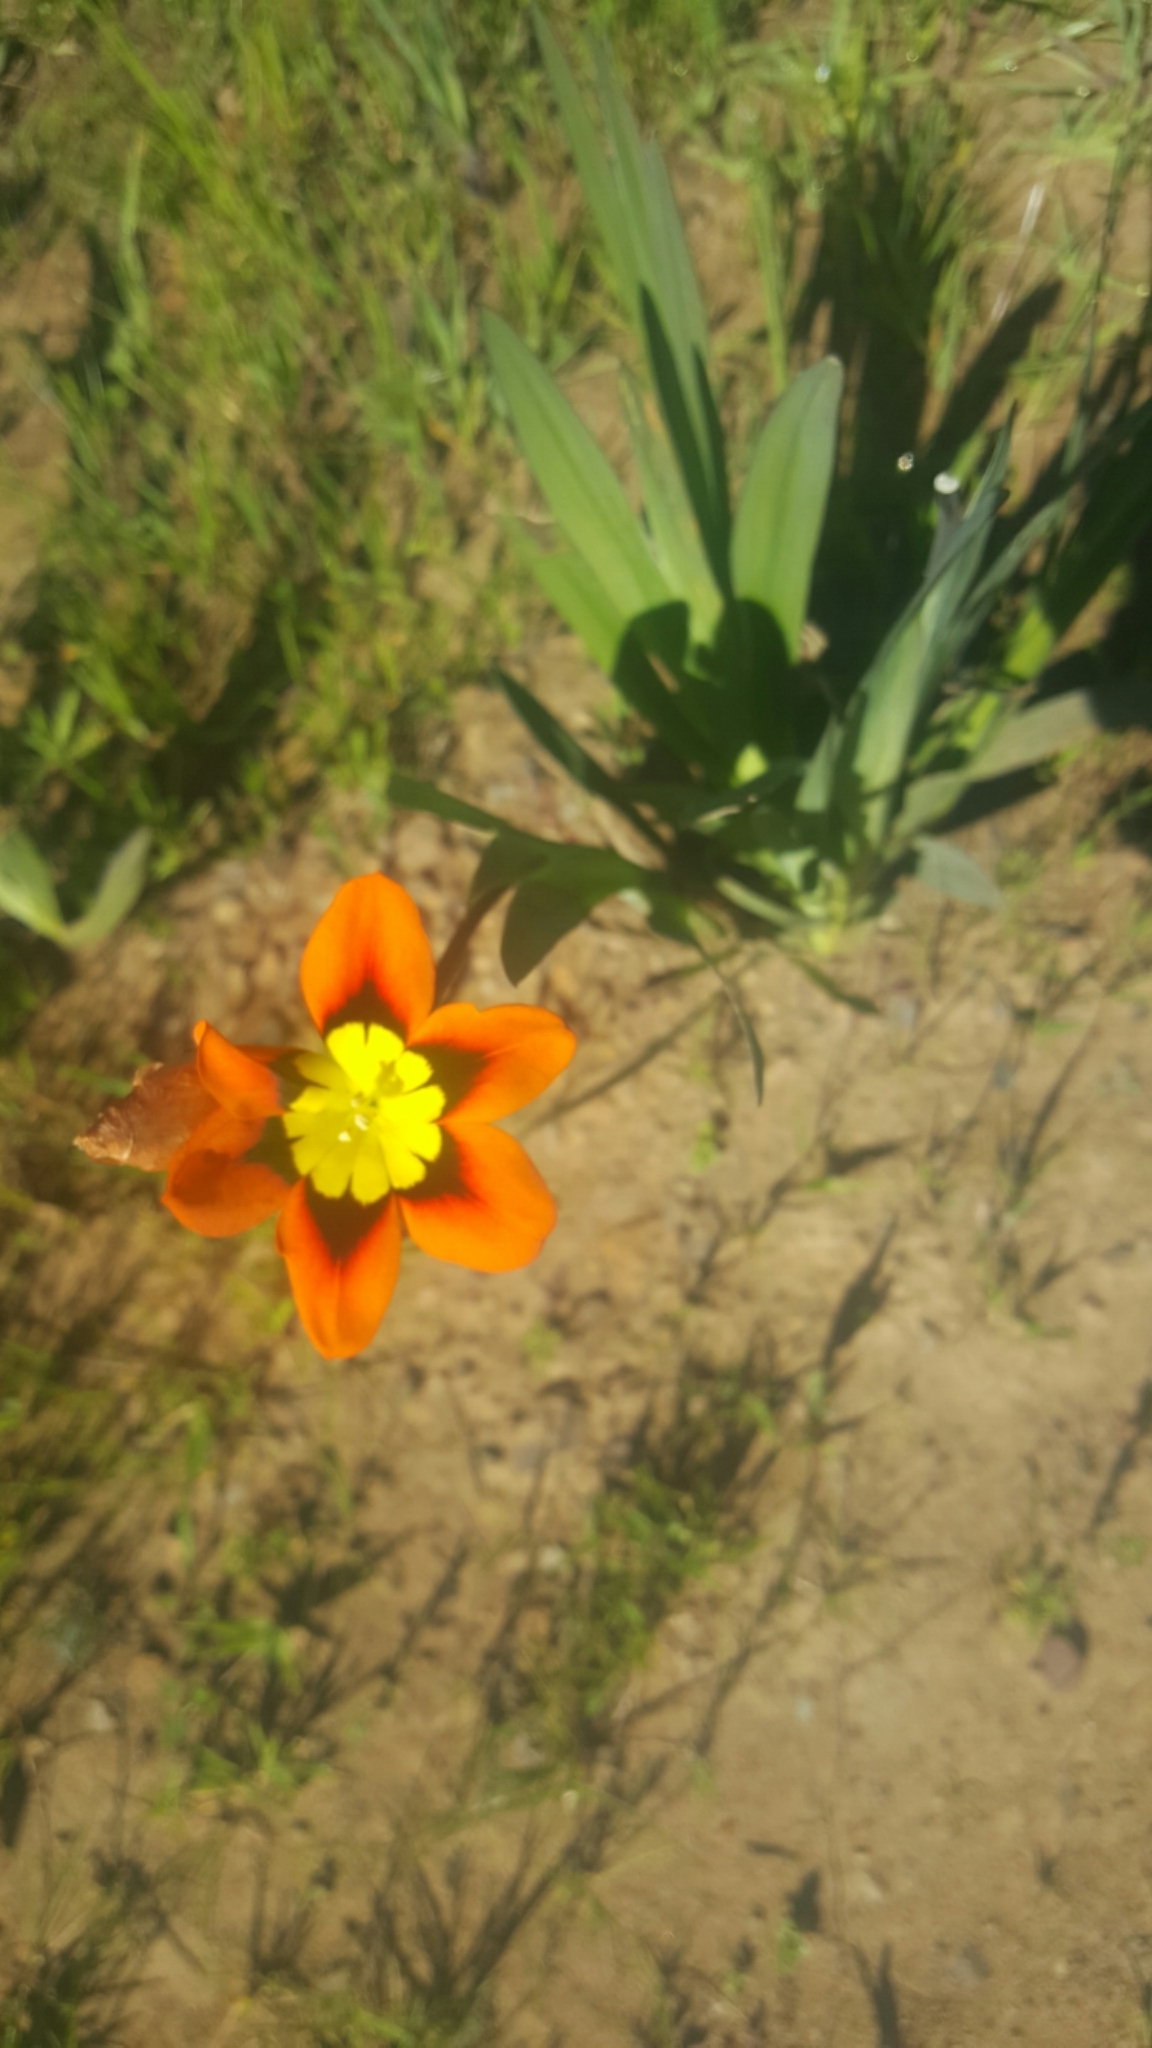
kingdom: Plantae
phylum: Tracheophyta
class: Liliopsida
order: Asparagales
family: Iridaceae
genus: Sparaxis
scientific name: Sparaxis tricolor
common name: Wandflower
